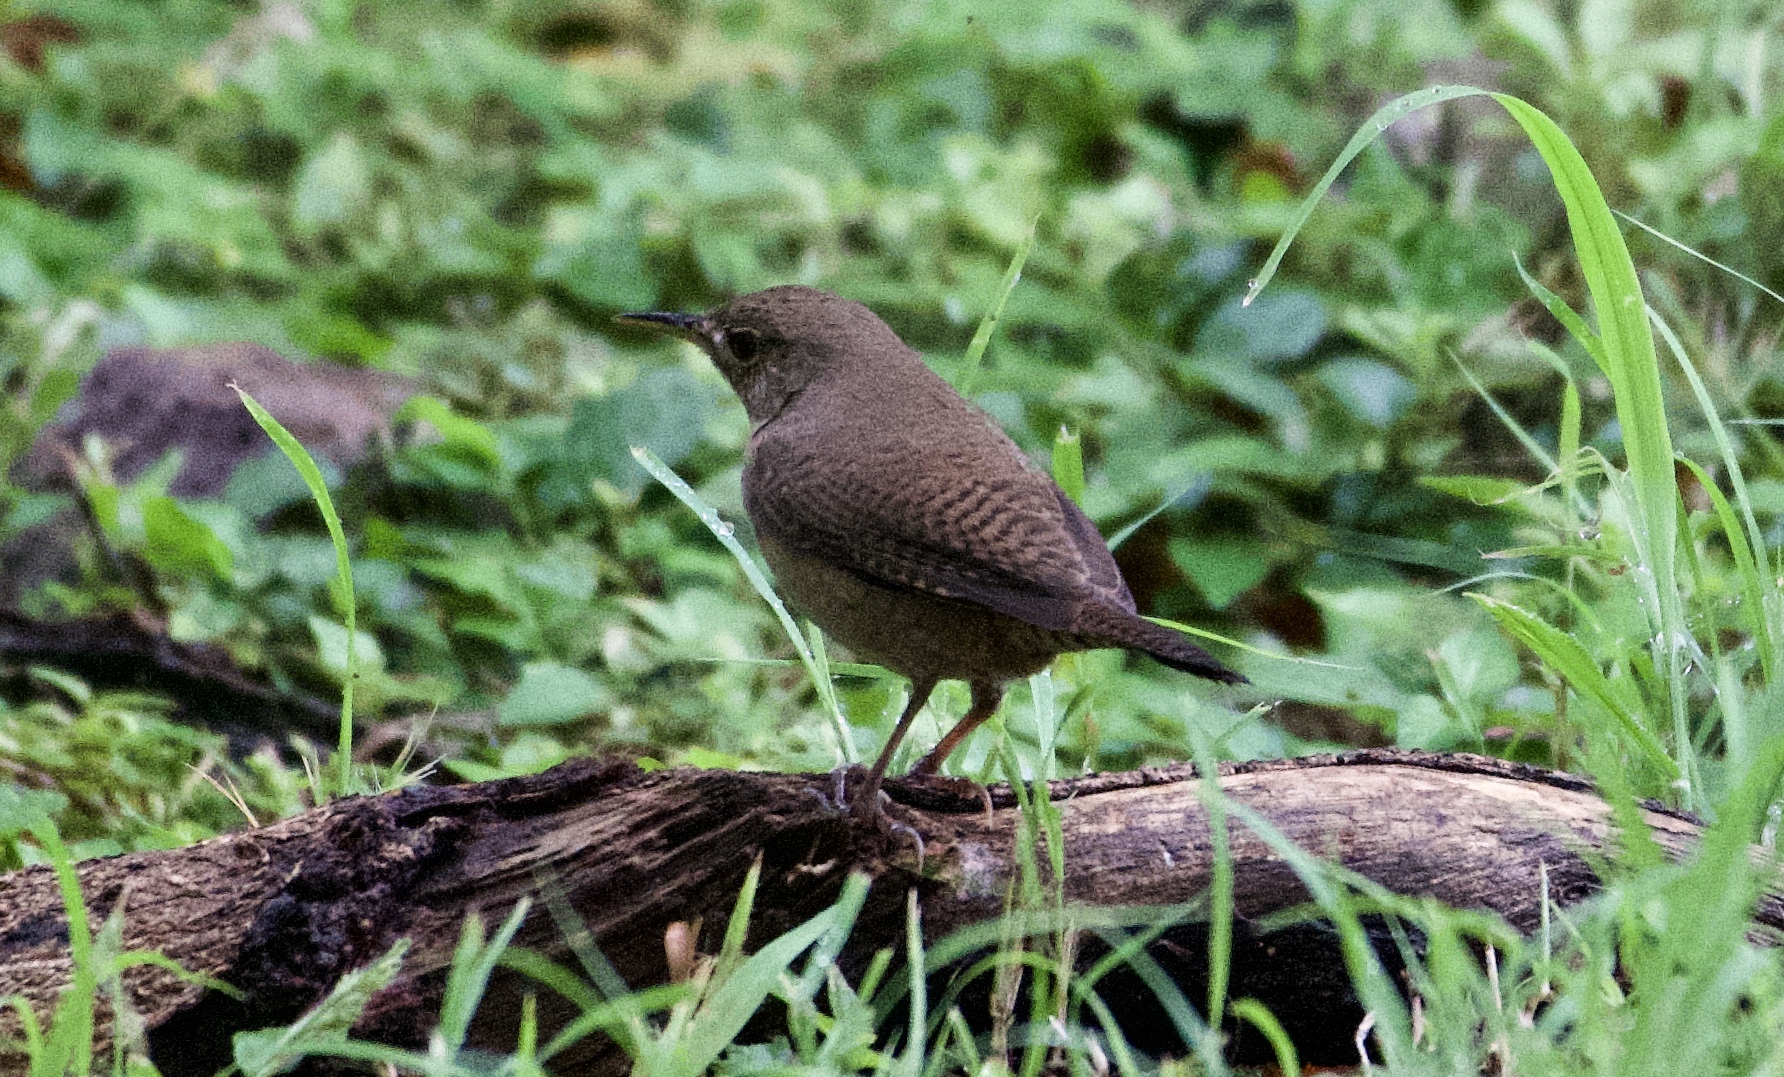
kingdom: Animalia
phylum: Chordata
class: Aves
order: Passeriformes
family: Troglodytidae
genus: Troglodytes
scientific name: Troglodytes aedon
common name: House wren
